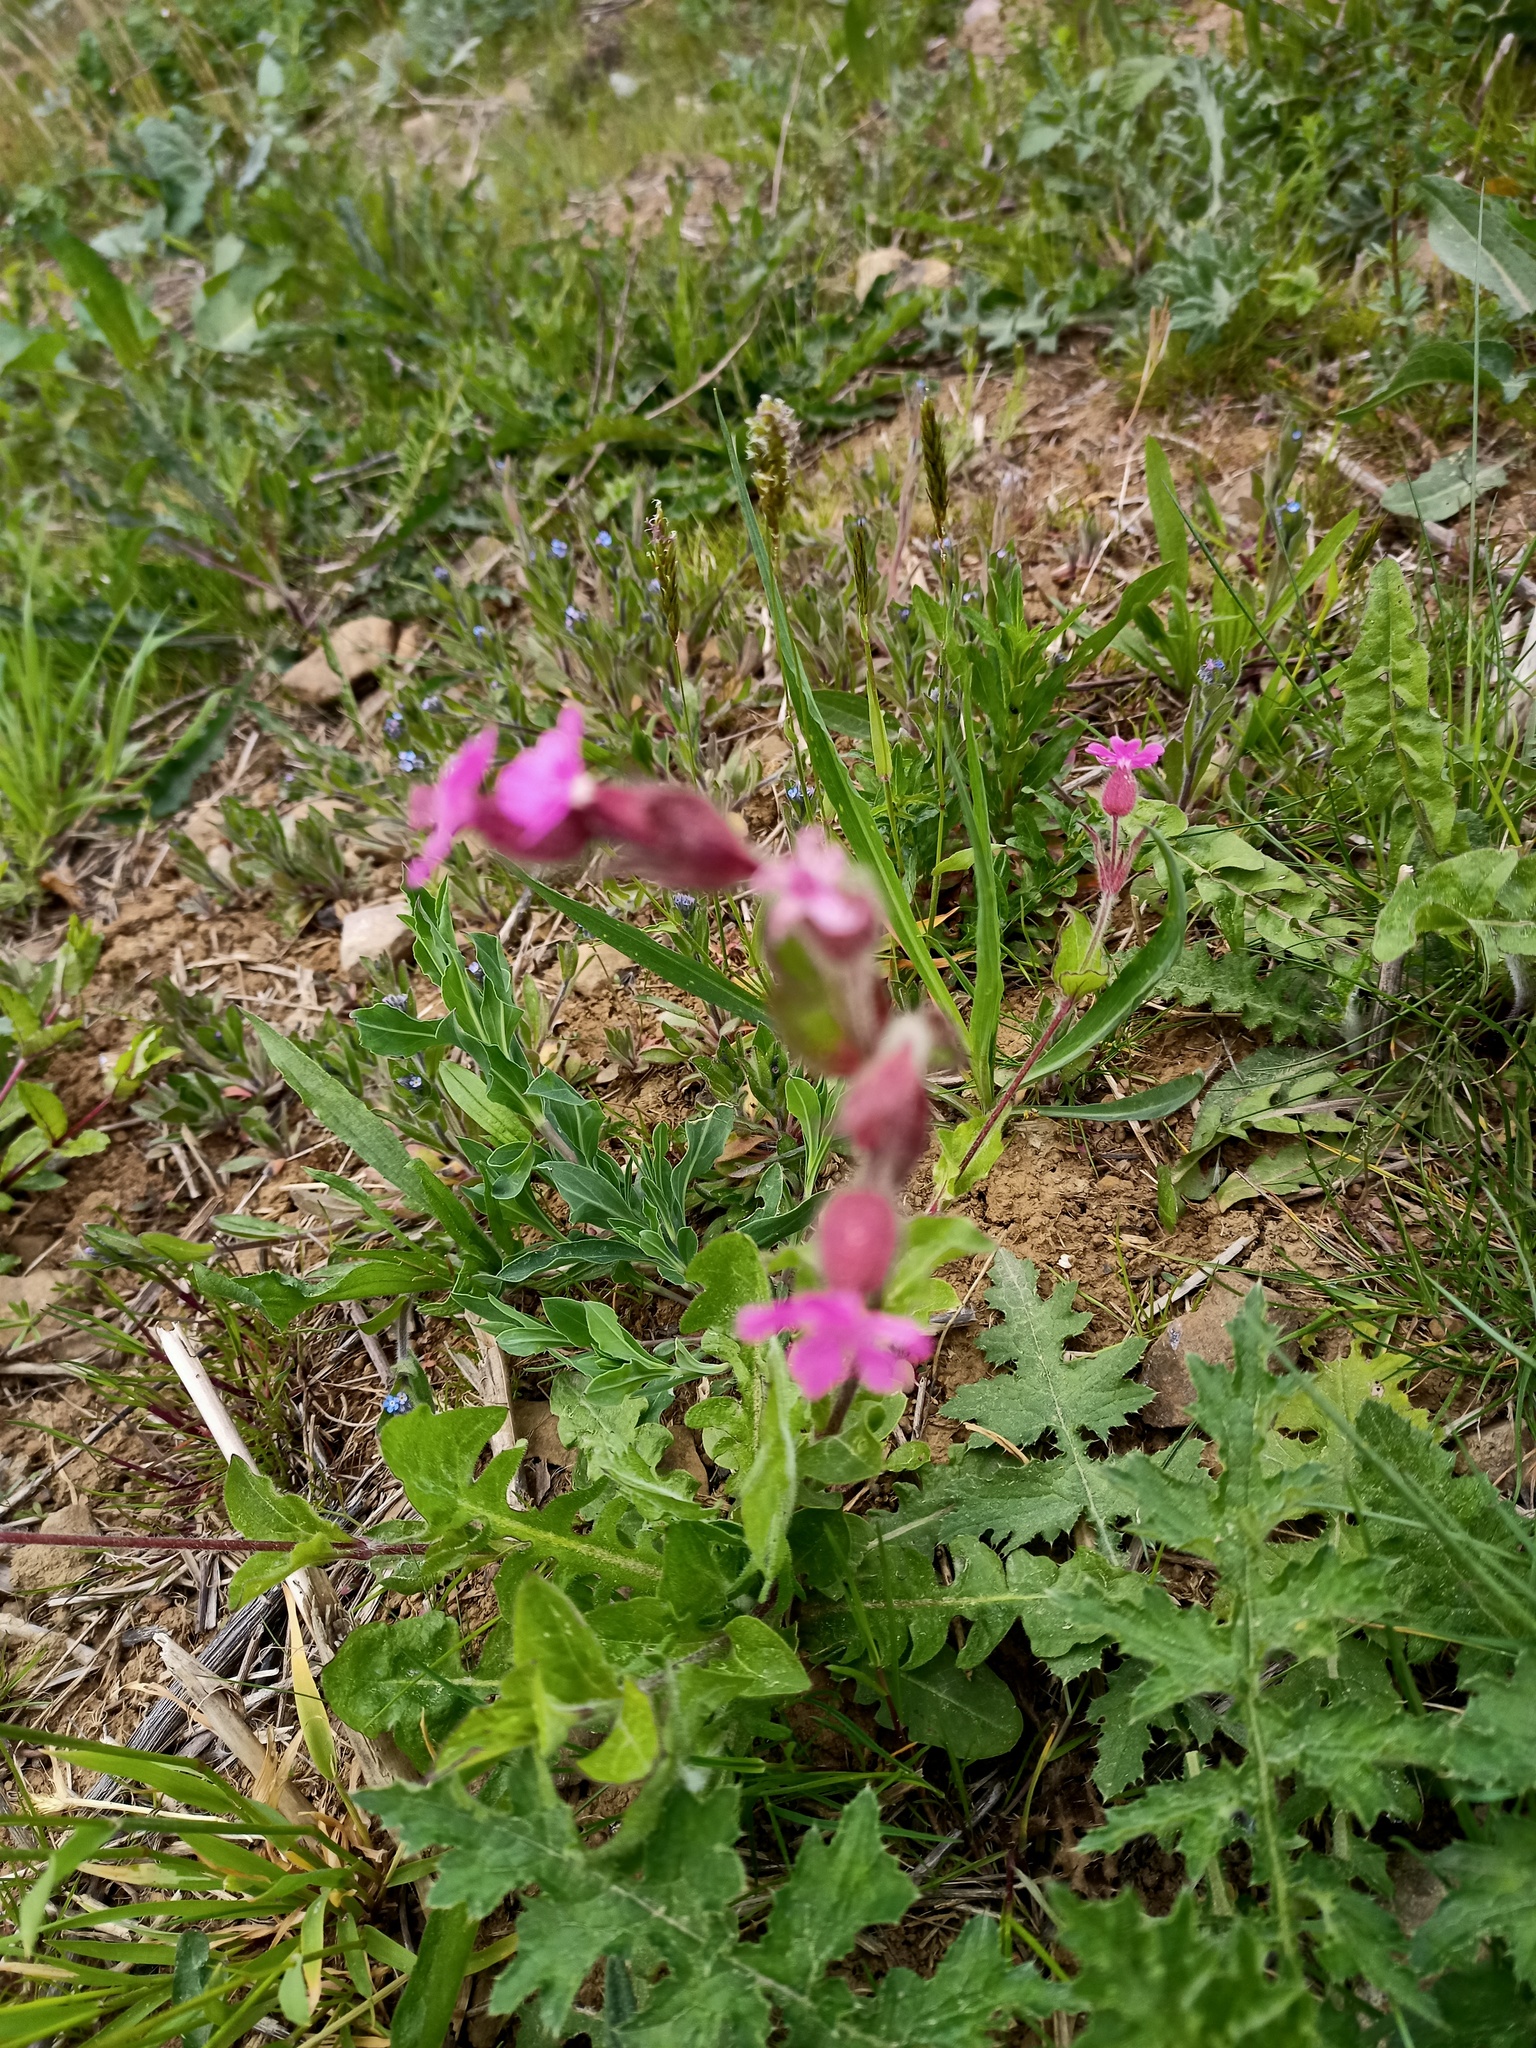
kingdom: Plantae
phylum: Tracheophyta
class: Magnoliopsida
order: Caryophyllales
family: Caryophyllaceae
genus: Silene
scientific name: Silene dioica
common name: Red campion
